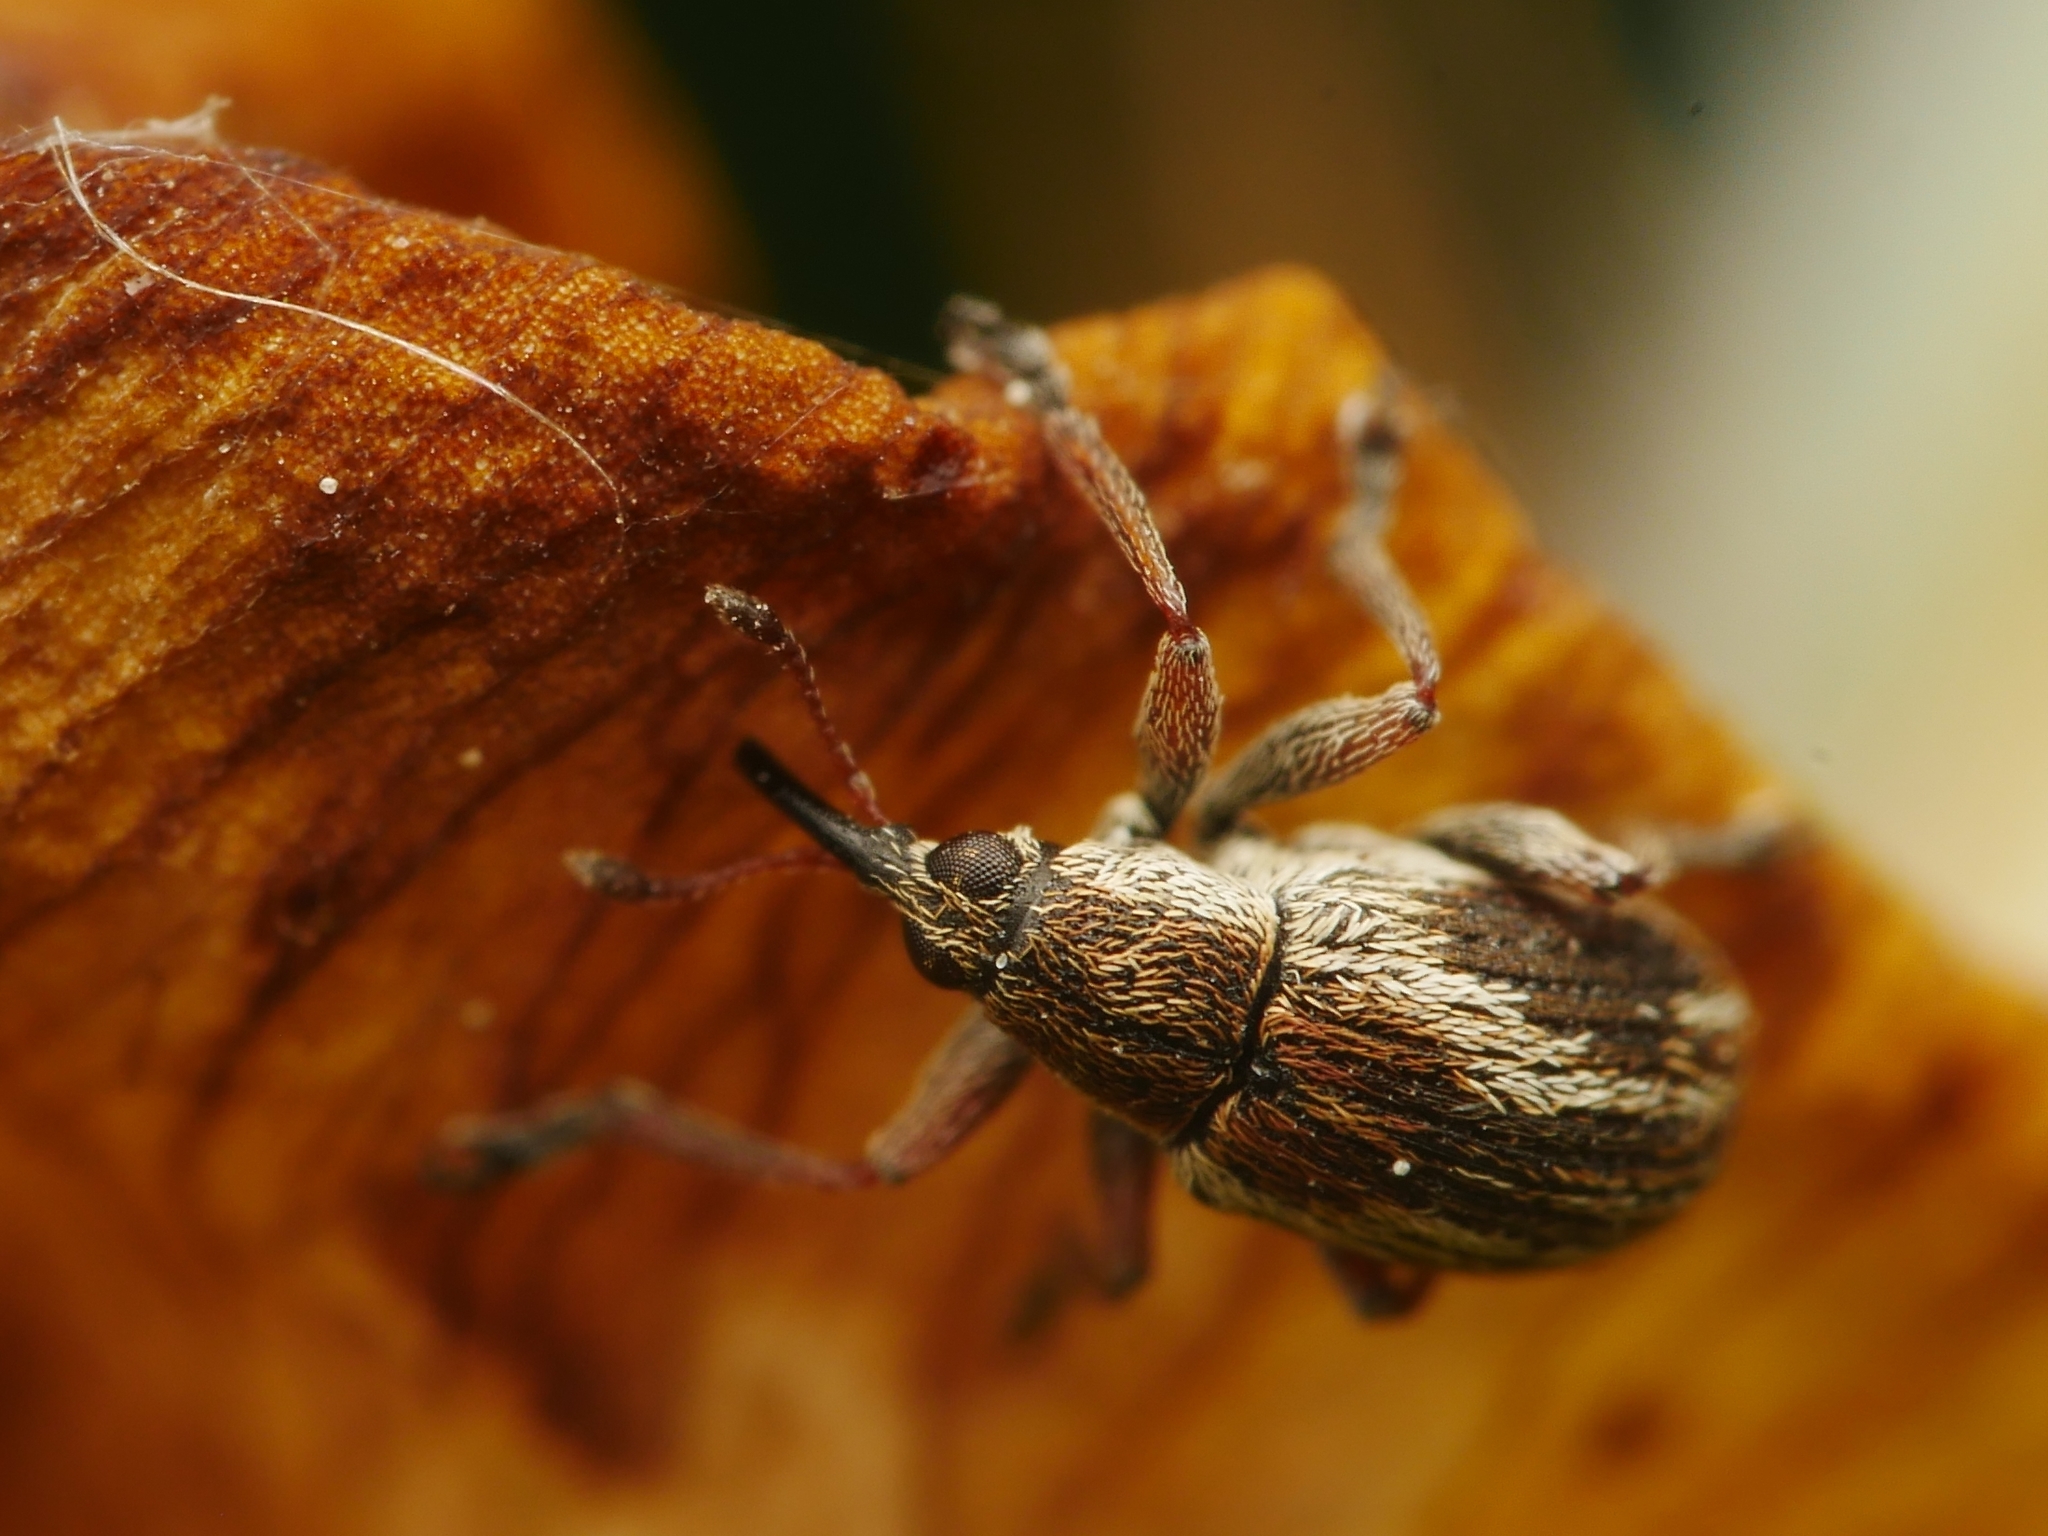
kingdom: Animalia
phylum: Arthropoda
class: Insecta
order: Coleoptera
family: Brentidae
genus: Exapion
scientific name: Exapion fuscirostre
